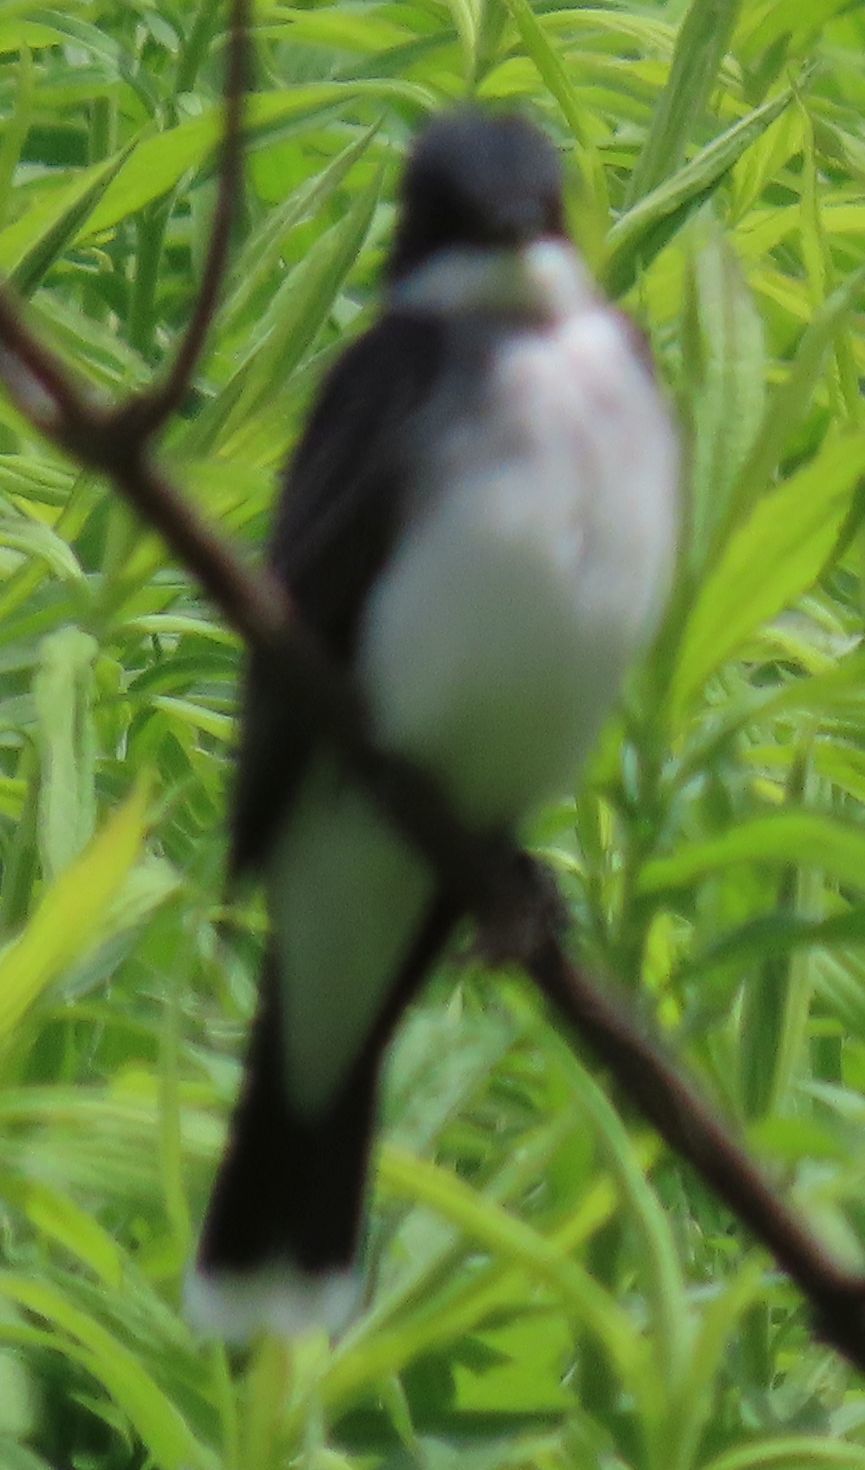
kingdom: Animalia
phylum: Chordata
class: Aves
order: Passeriformes
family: Tyrannidae
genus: Tyrannus
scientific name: Tyrannus tyrannus
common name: Eastern kingbird
